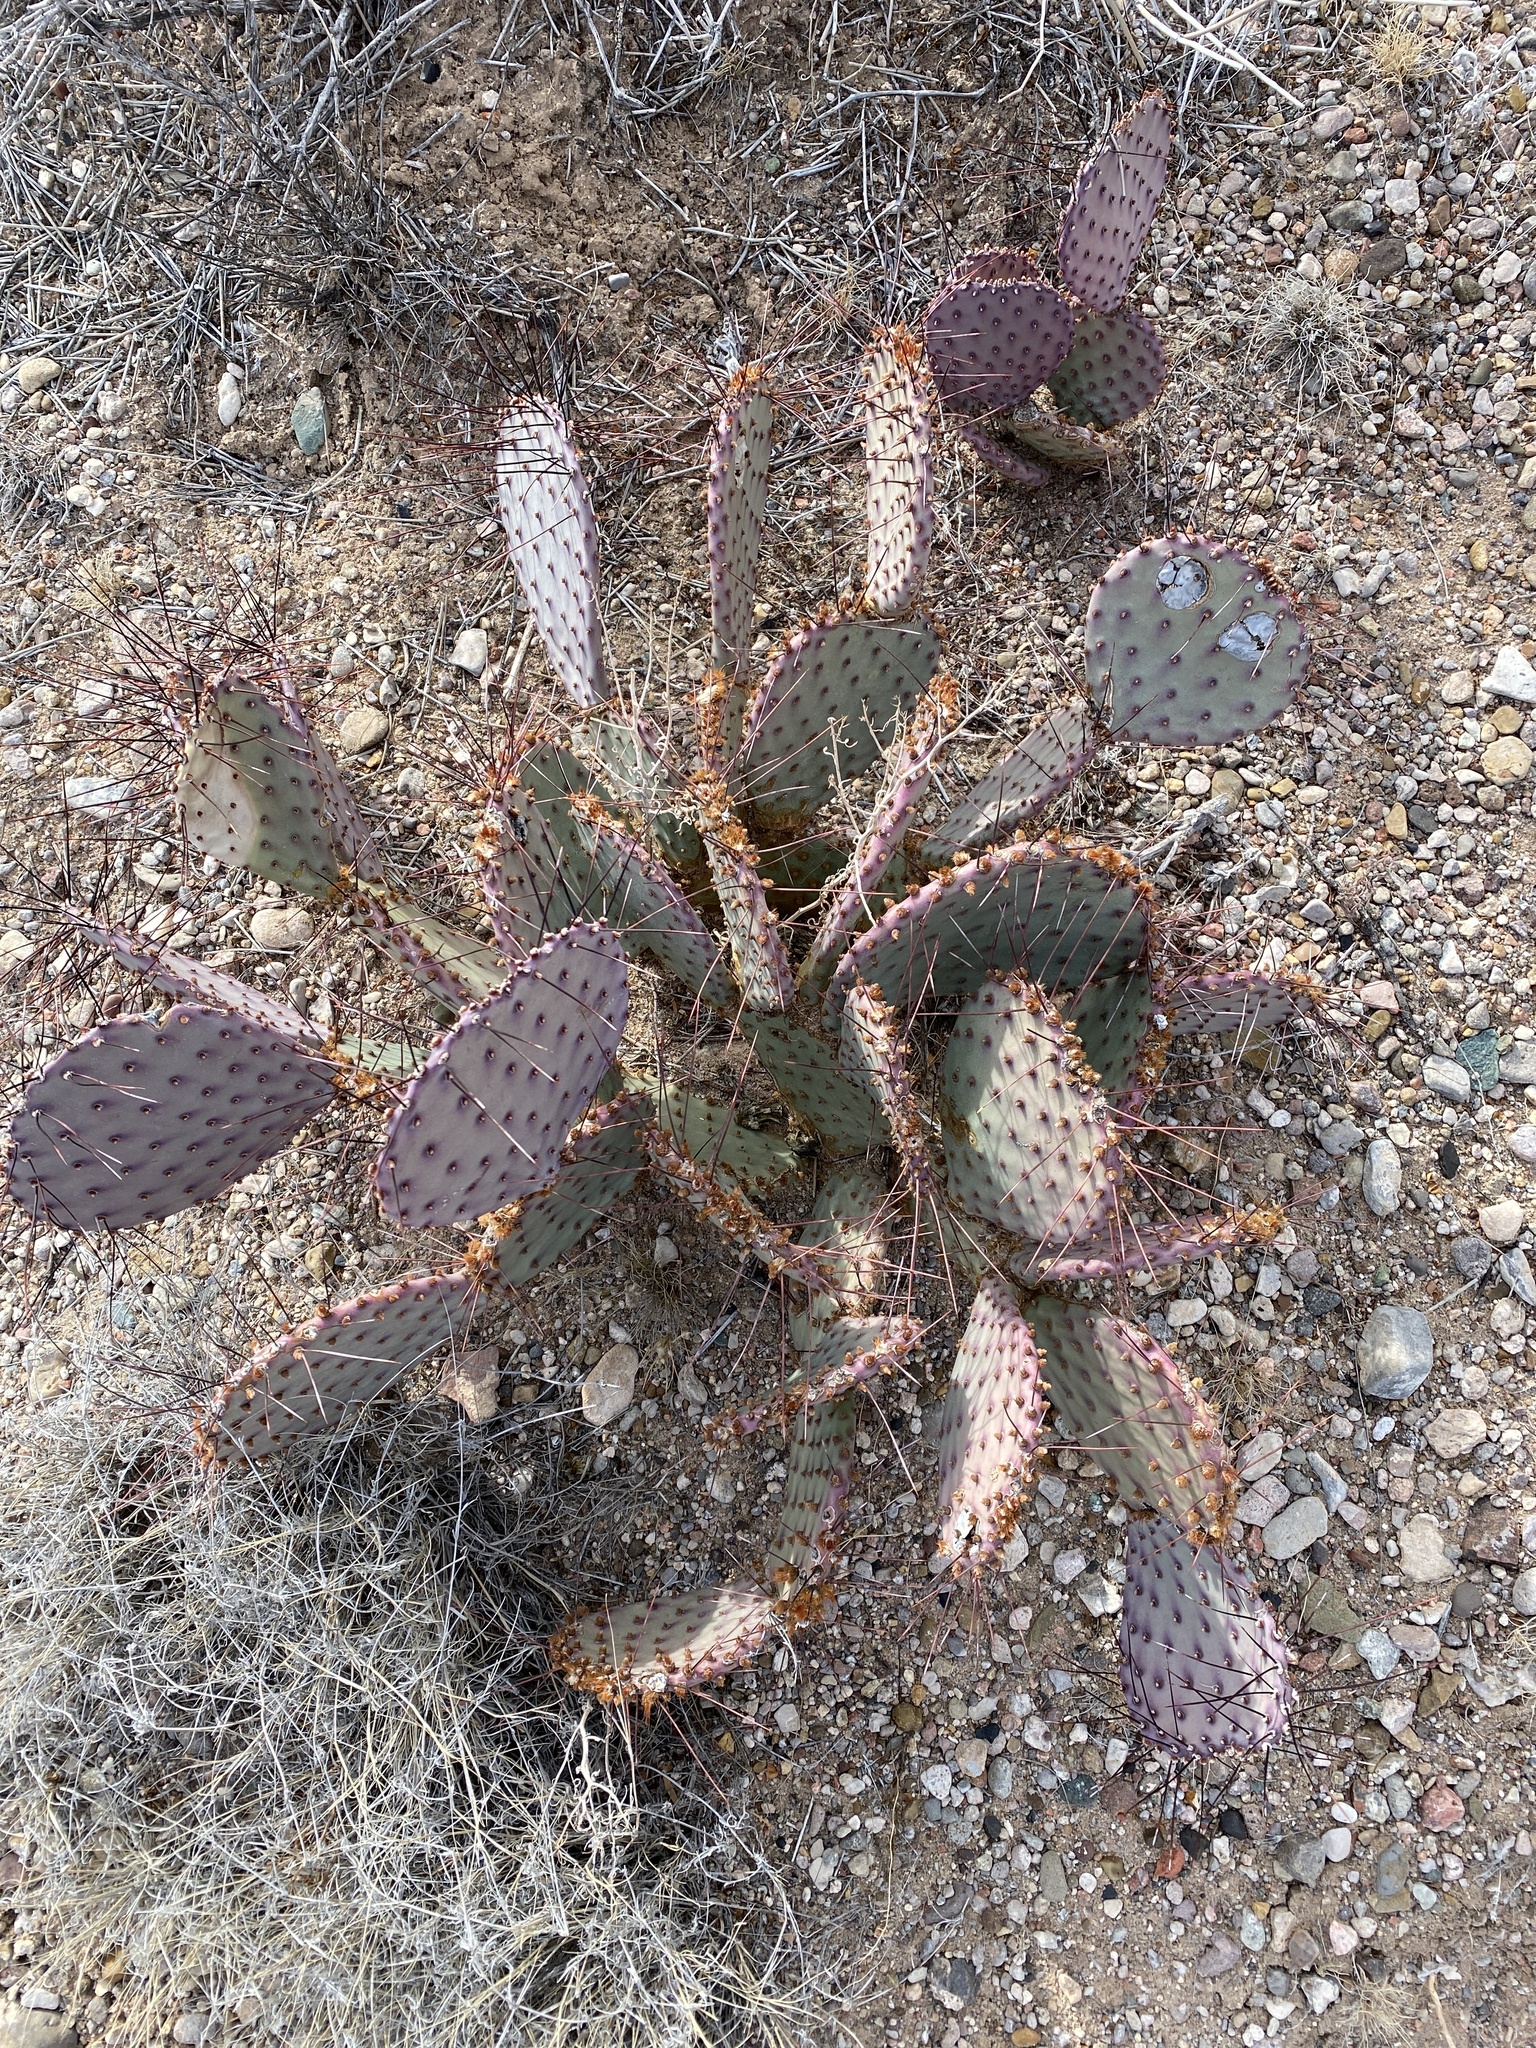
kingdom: Plantae
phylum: Tracheophyta
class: Magnoliopsida
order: Caryophyllales
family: Cactaceae
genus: Opuntia
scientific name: Opuntia macrocentra
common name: Purple prickly-pear
